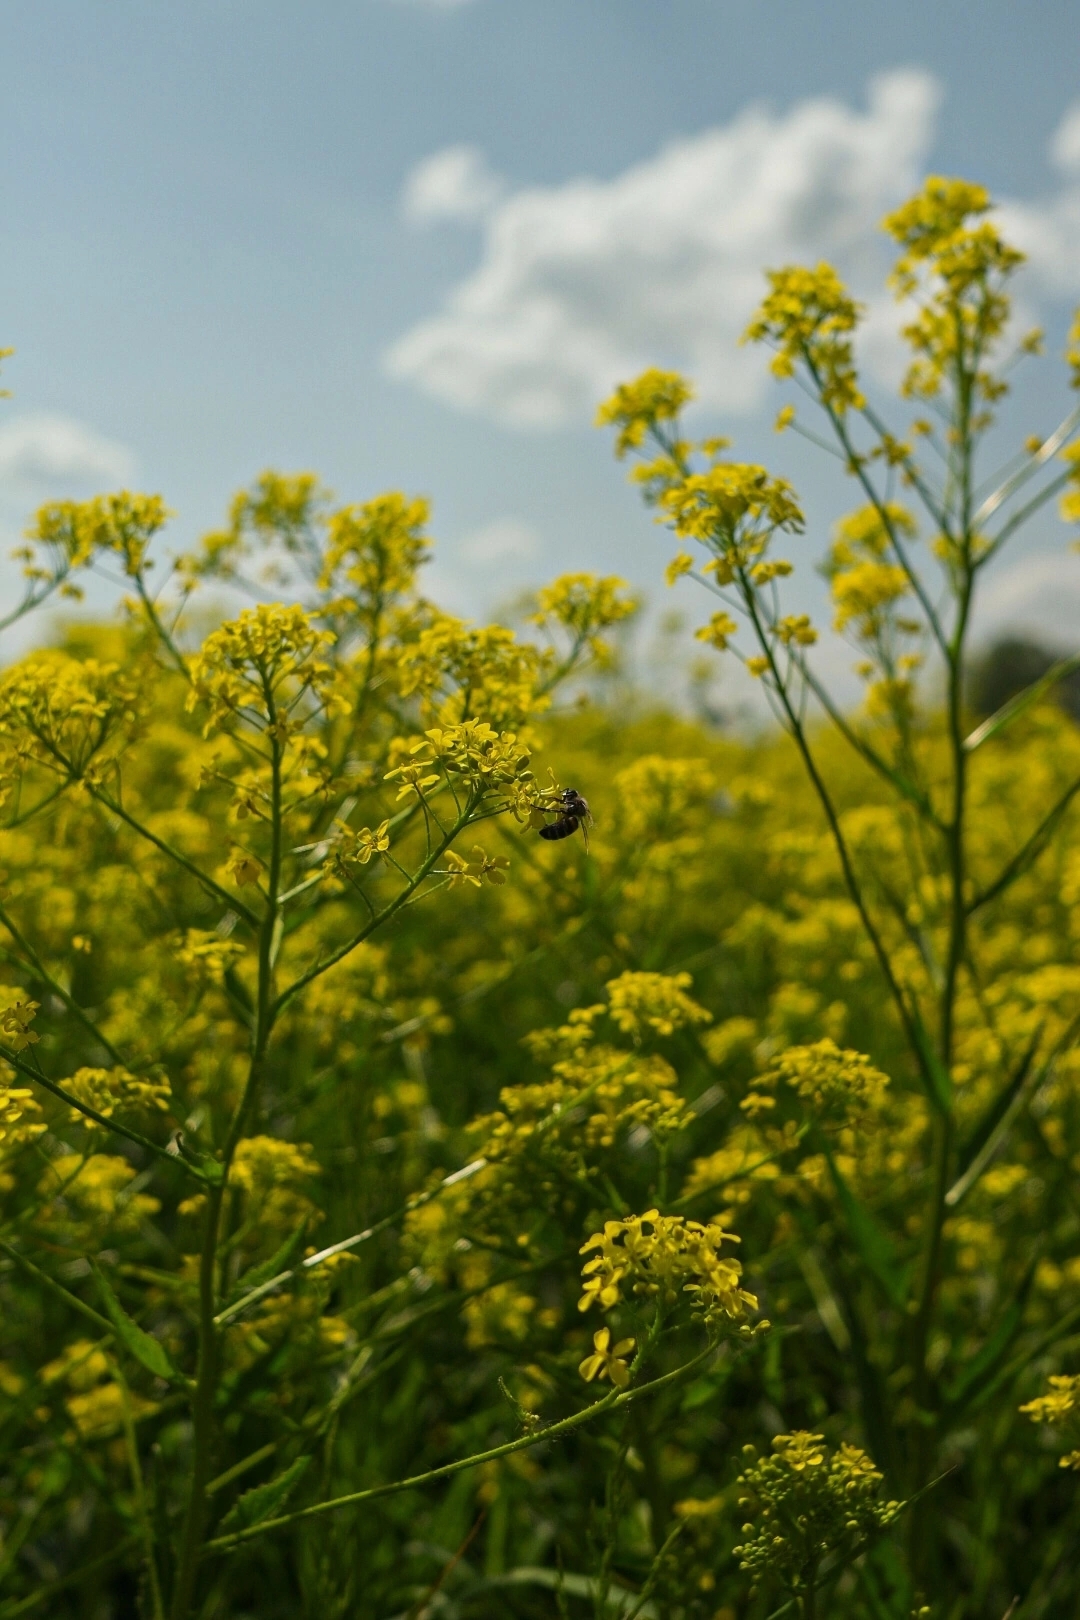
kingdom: Plantae
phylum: Tracheophyta
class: Magnoliopsida
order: Brassicales
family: Brassicaceae
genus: Bunias
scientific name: Bunias orientalis
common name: Warty-cabbage
